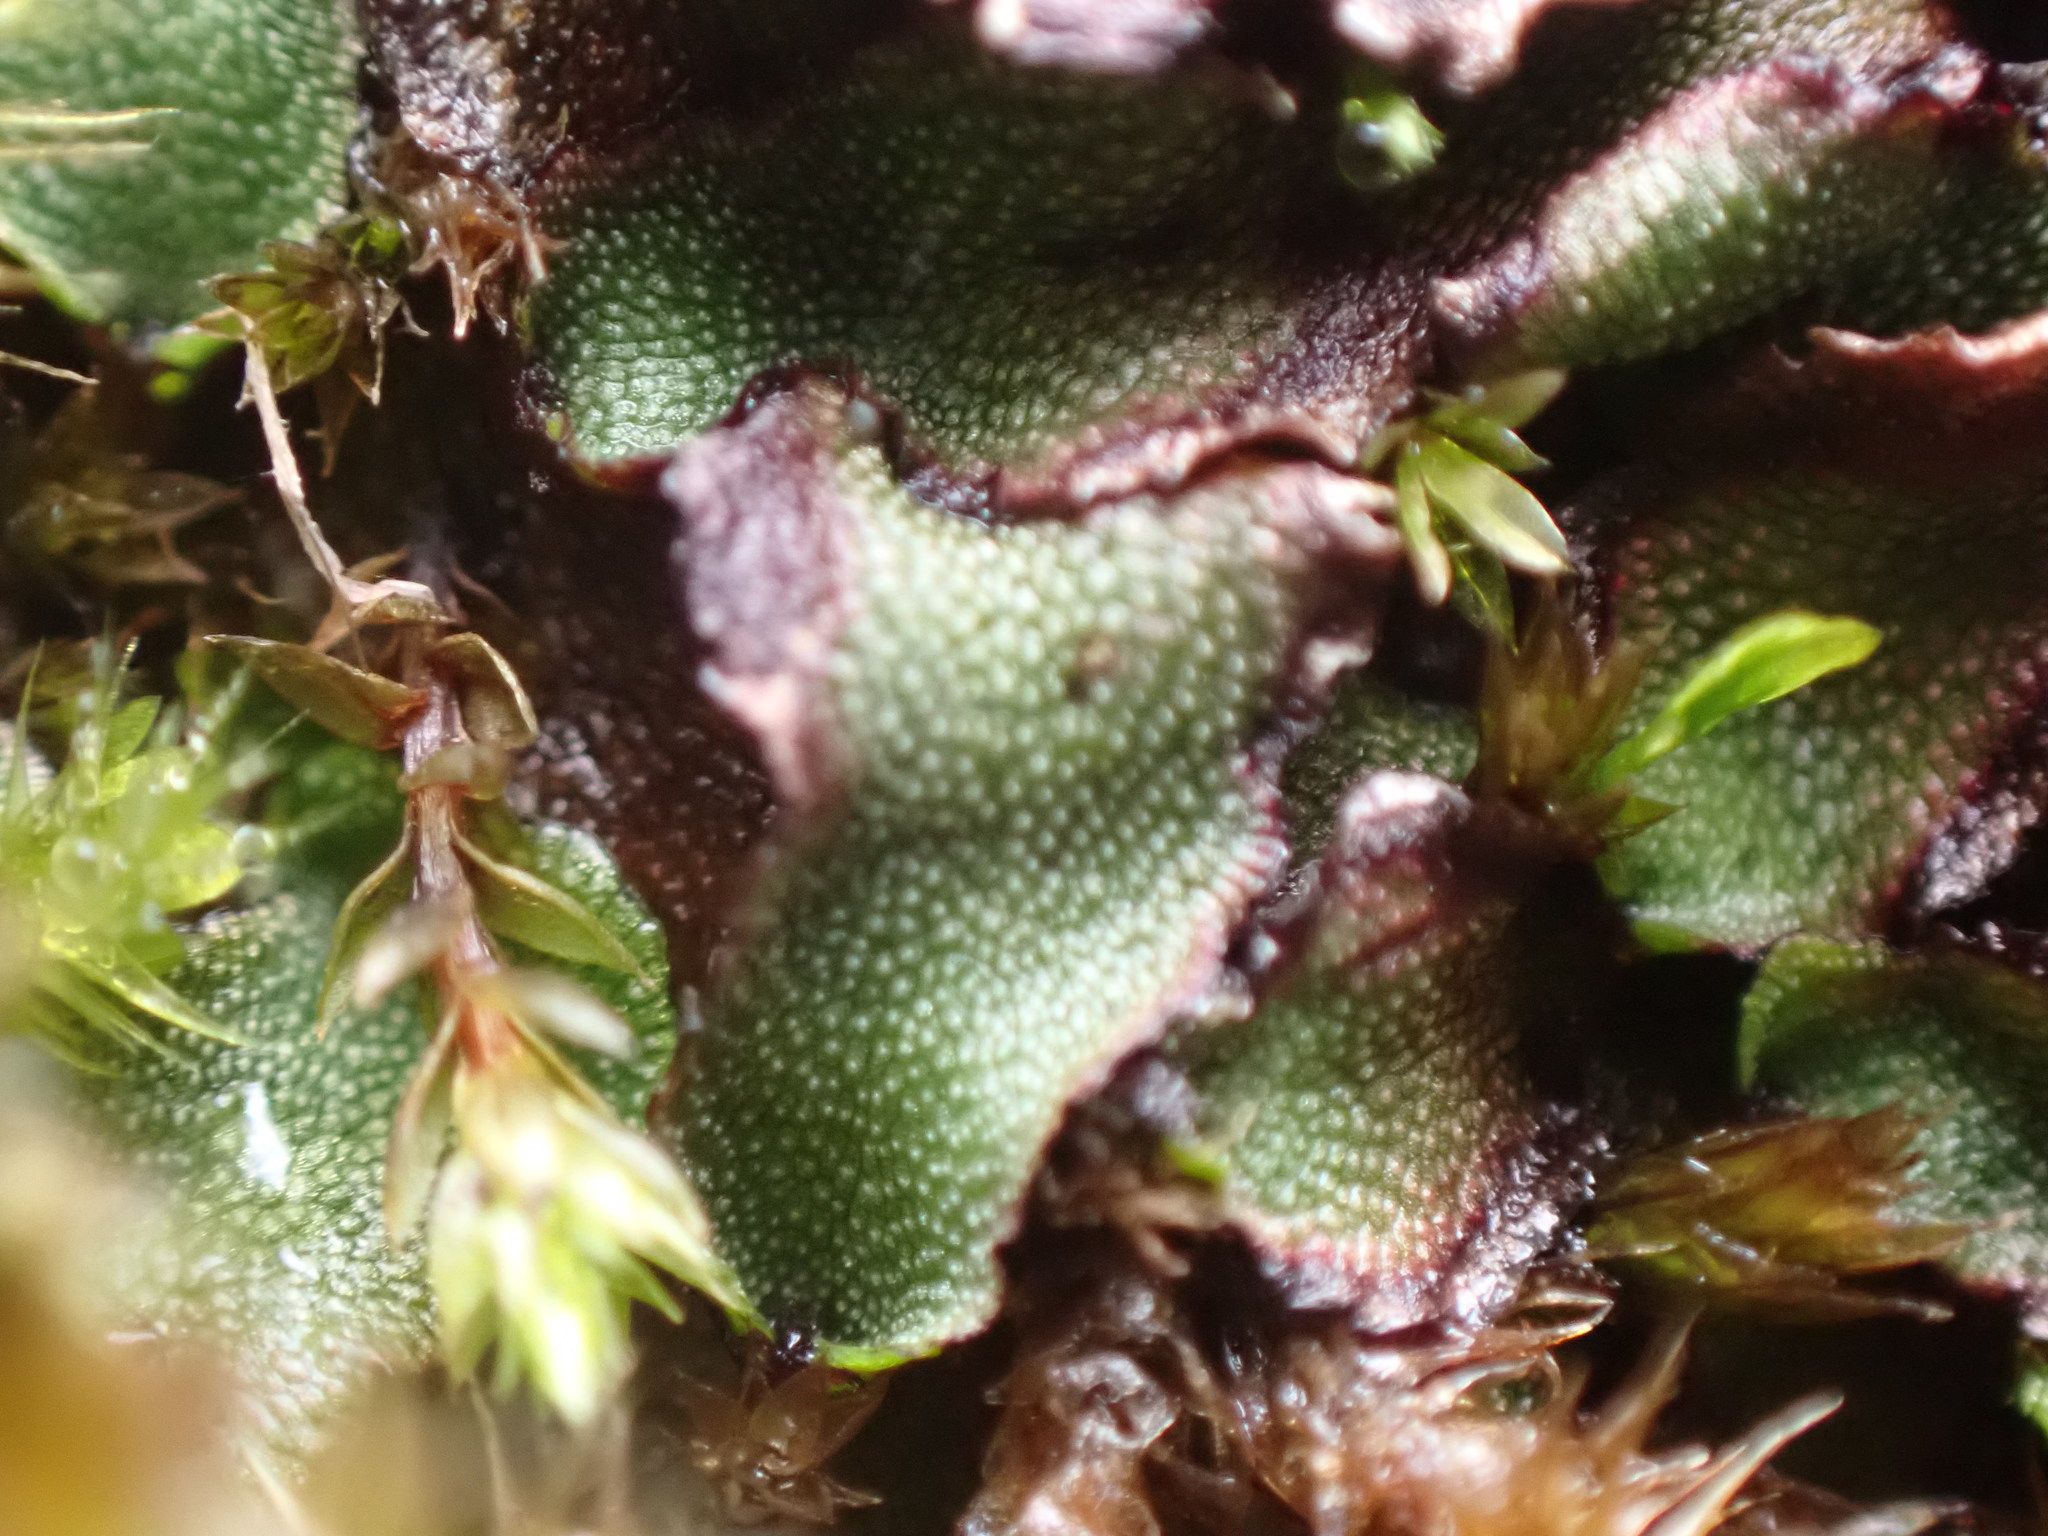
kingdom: Plantae
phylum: Marchantiophyta
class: Marchantiopsida
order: Marchantiales
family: Marchantiaceae
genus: Marchantia
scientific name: Marchantia quadrata
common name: Narrow mushroom-headed liverwort
